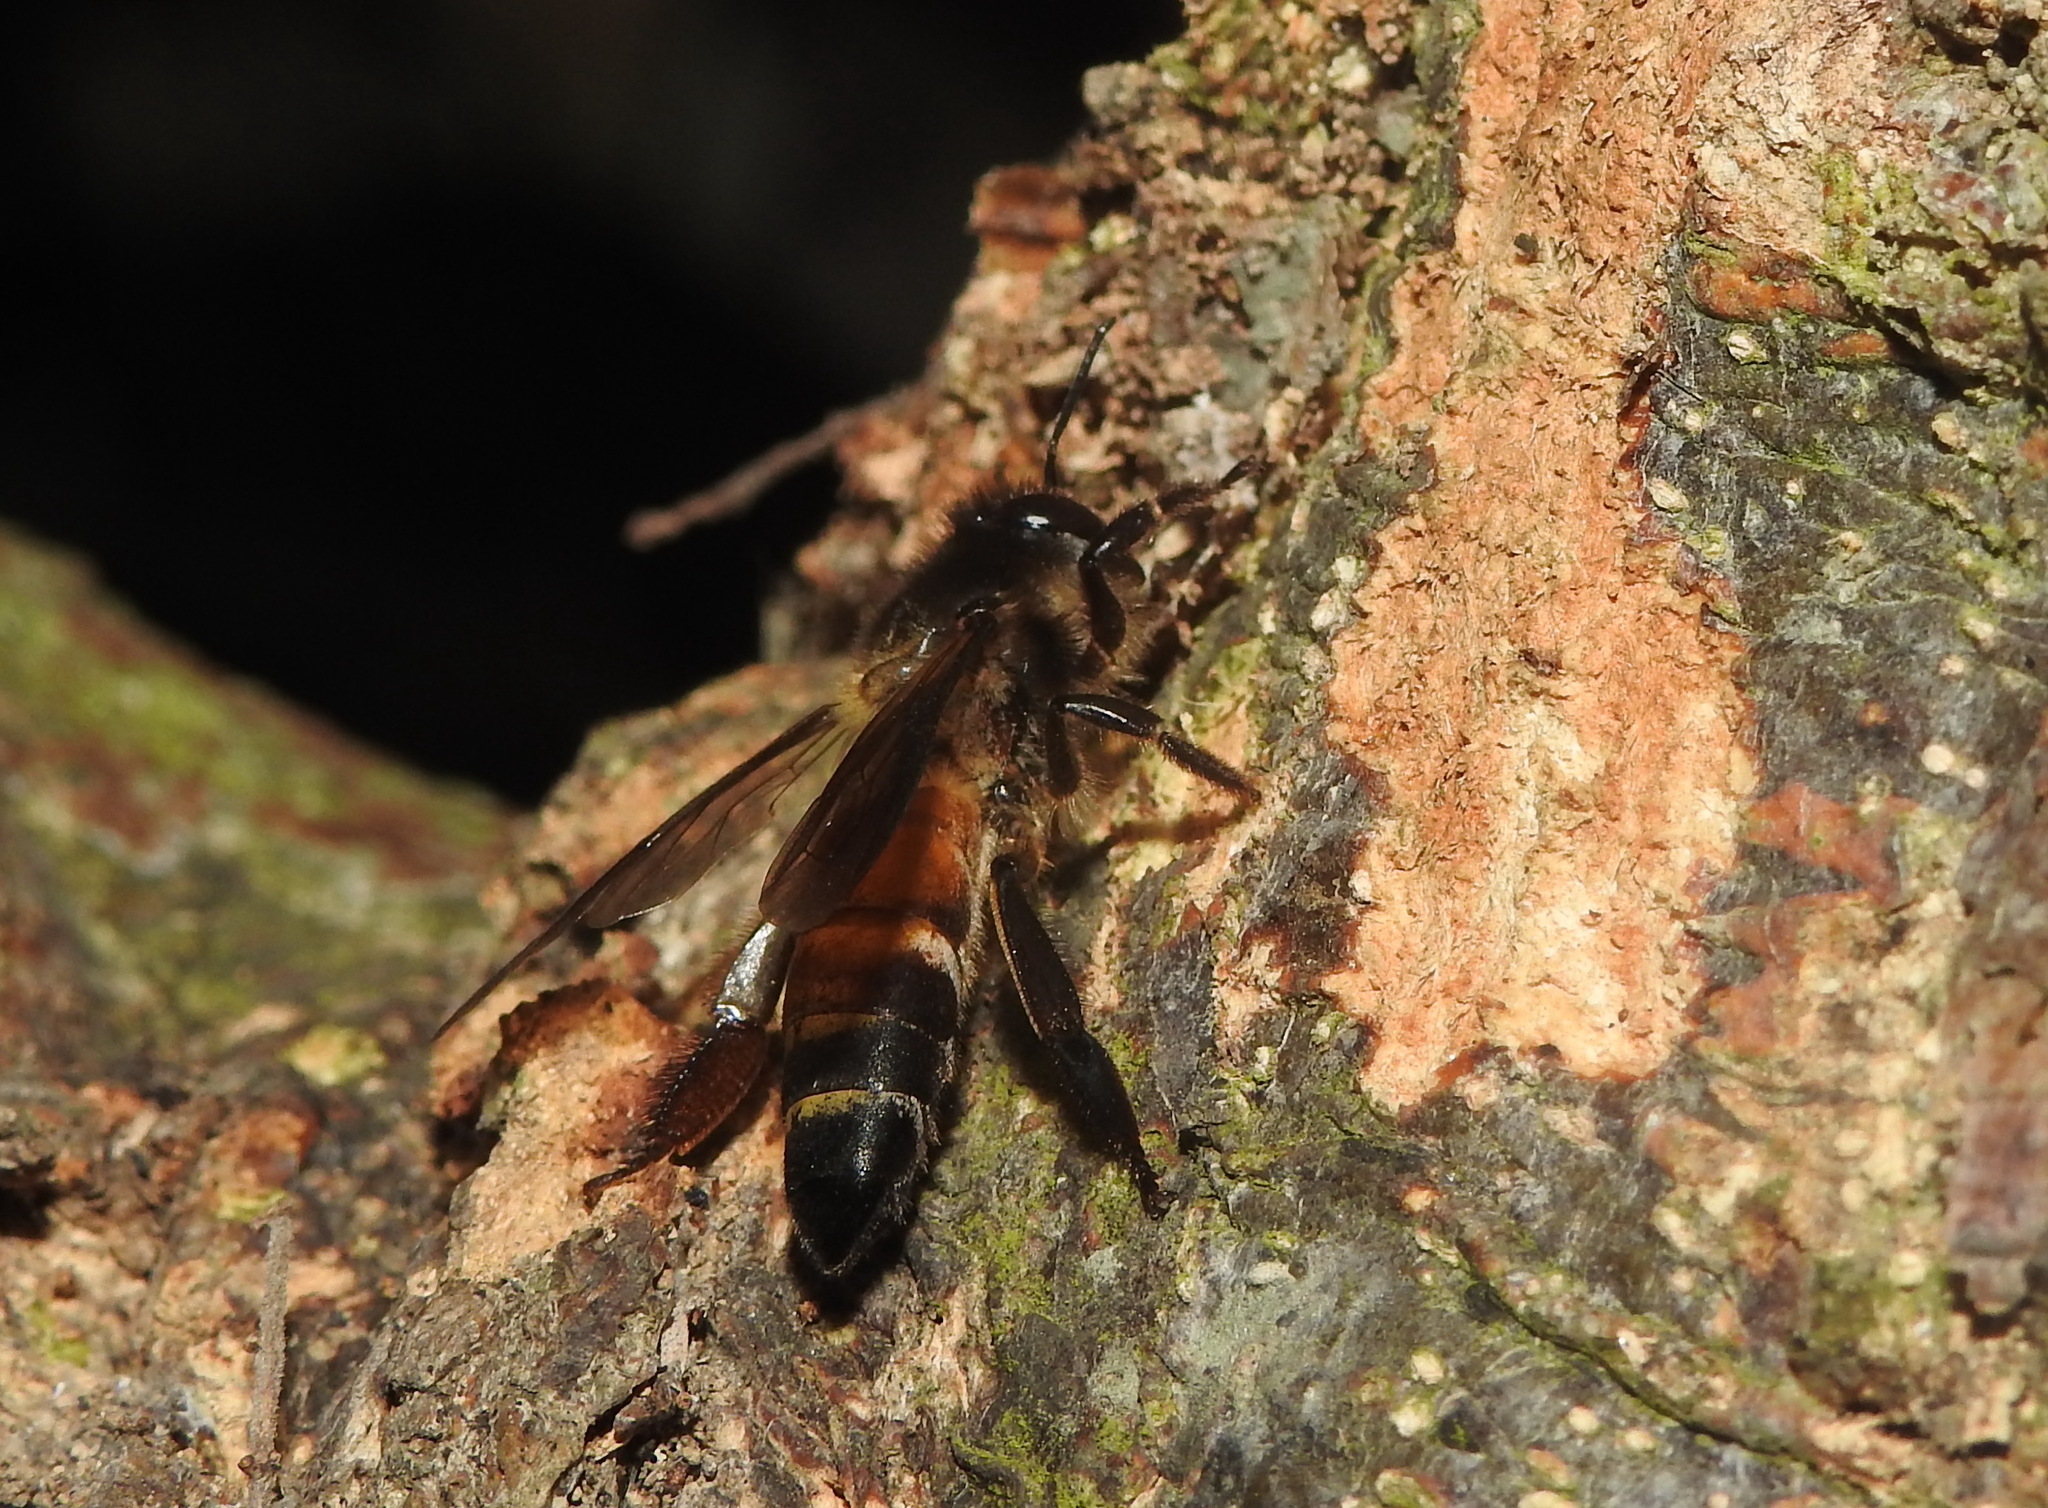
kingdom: Animalia
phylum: Arthropoda
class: Insecta
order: Hymenoptera
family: Apidae
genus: Apis
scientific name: Apis dorsata
